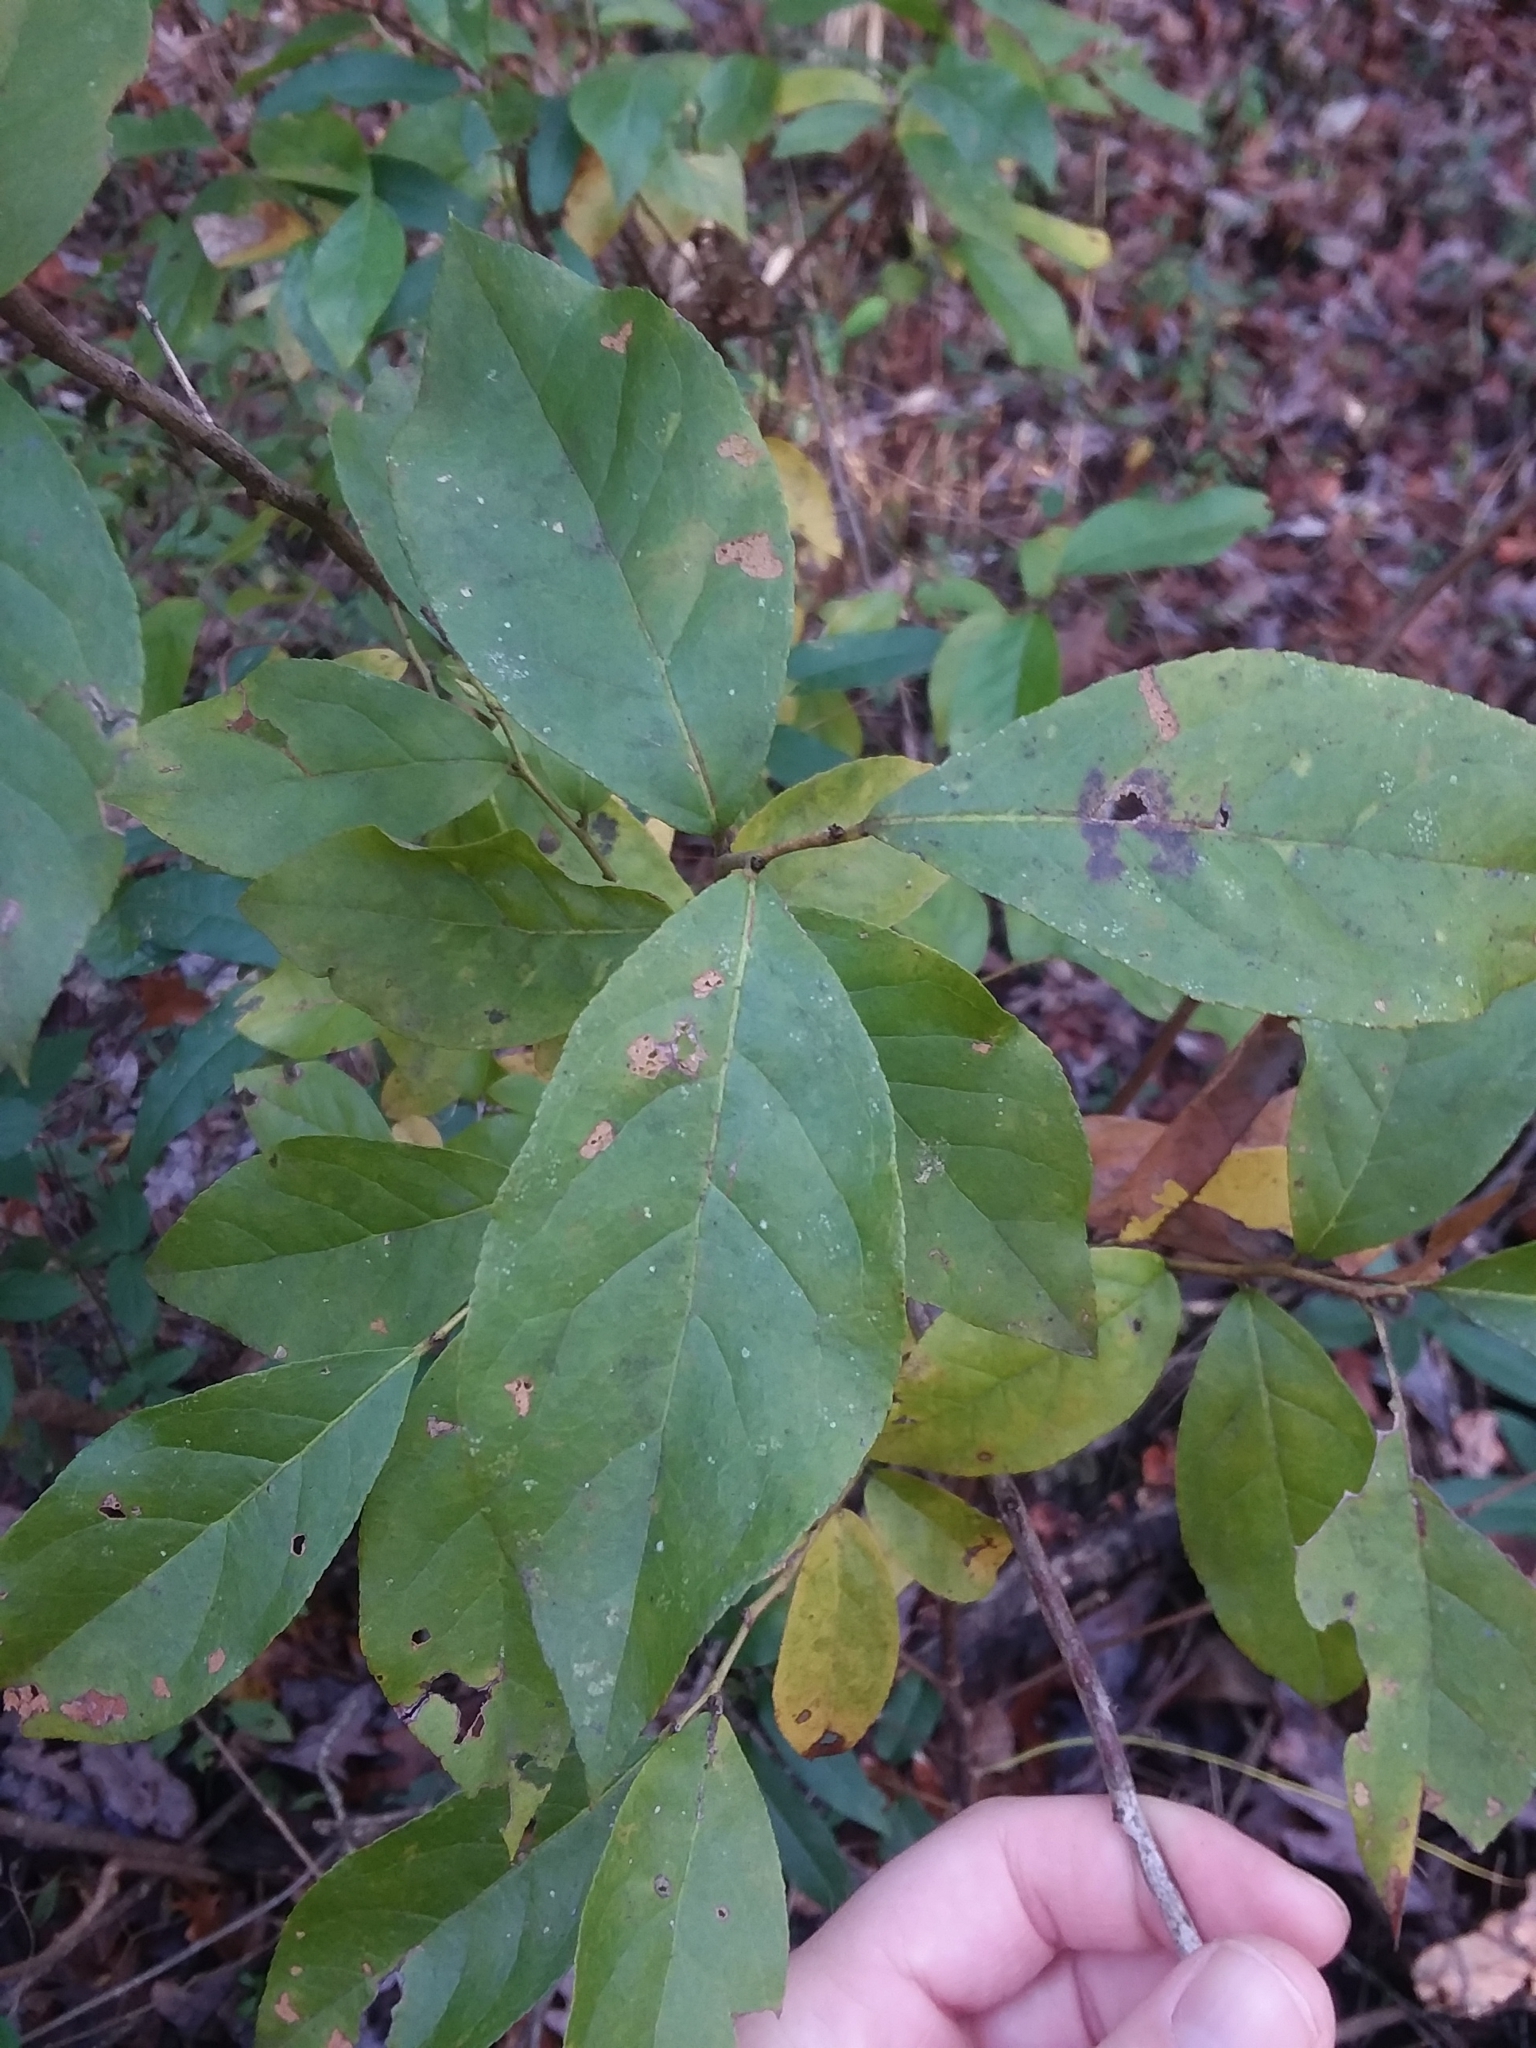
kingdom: Plantae
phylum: Tracheophyta
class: Magnoliopsida
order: Ericales
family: Ericaceae
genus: Eubotrys
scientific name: Eubotrys racemosa
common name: Fetterbush
